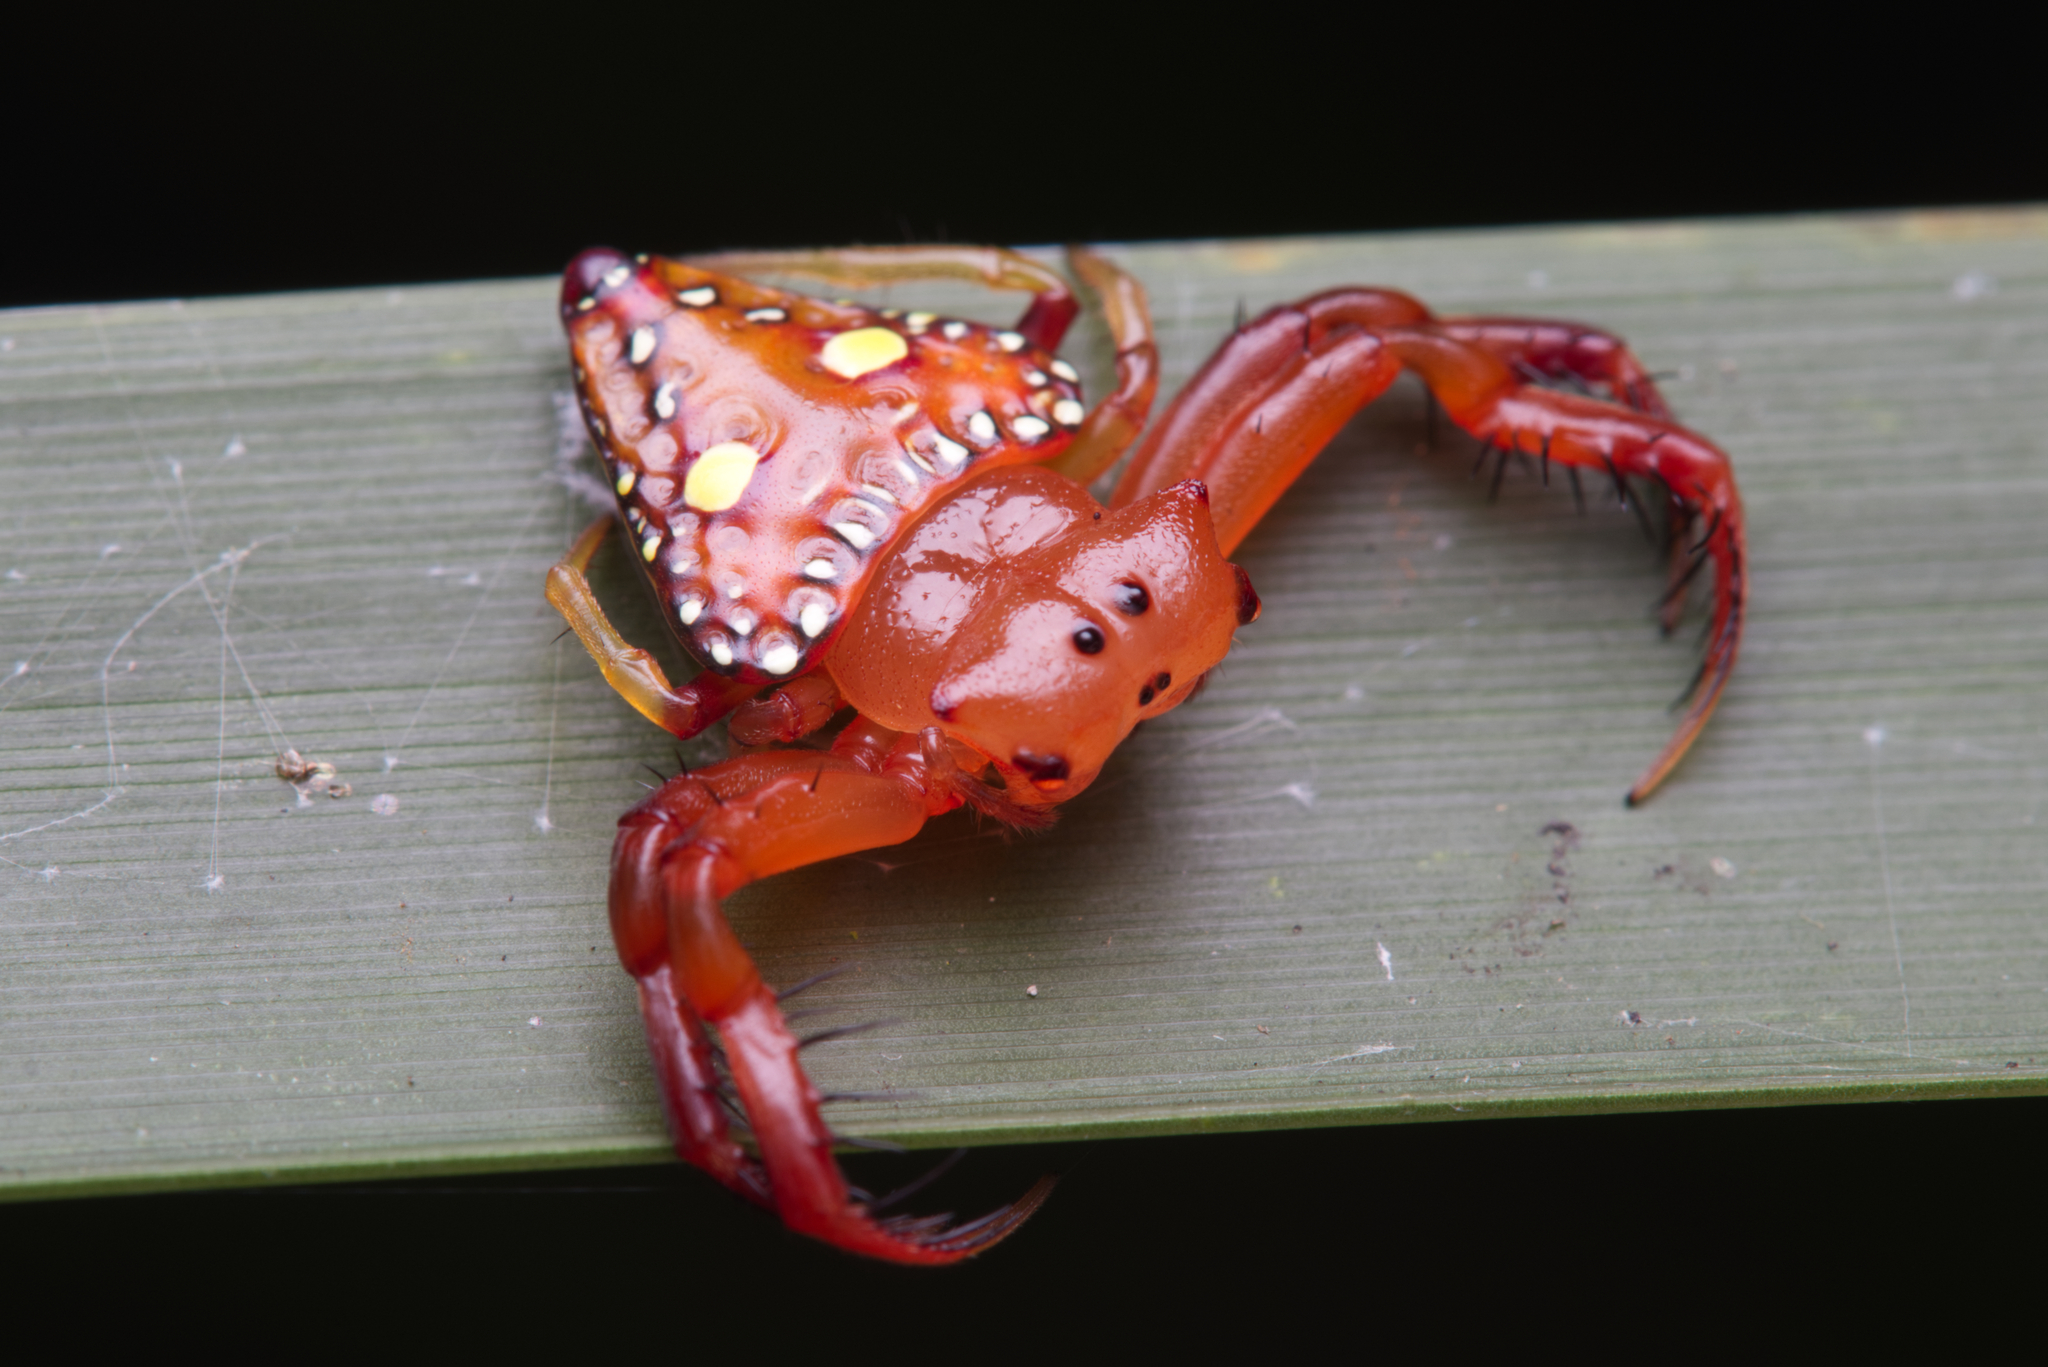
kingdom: Animalia
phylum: Arthropoda
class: Arachnida
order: Araneae
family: Arkyidae
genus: Arkys
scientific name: Arkys lancearius
